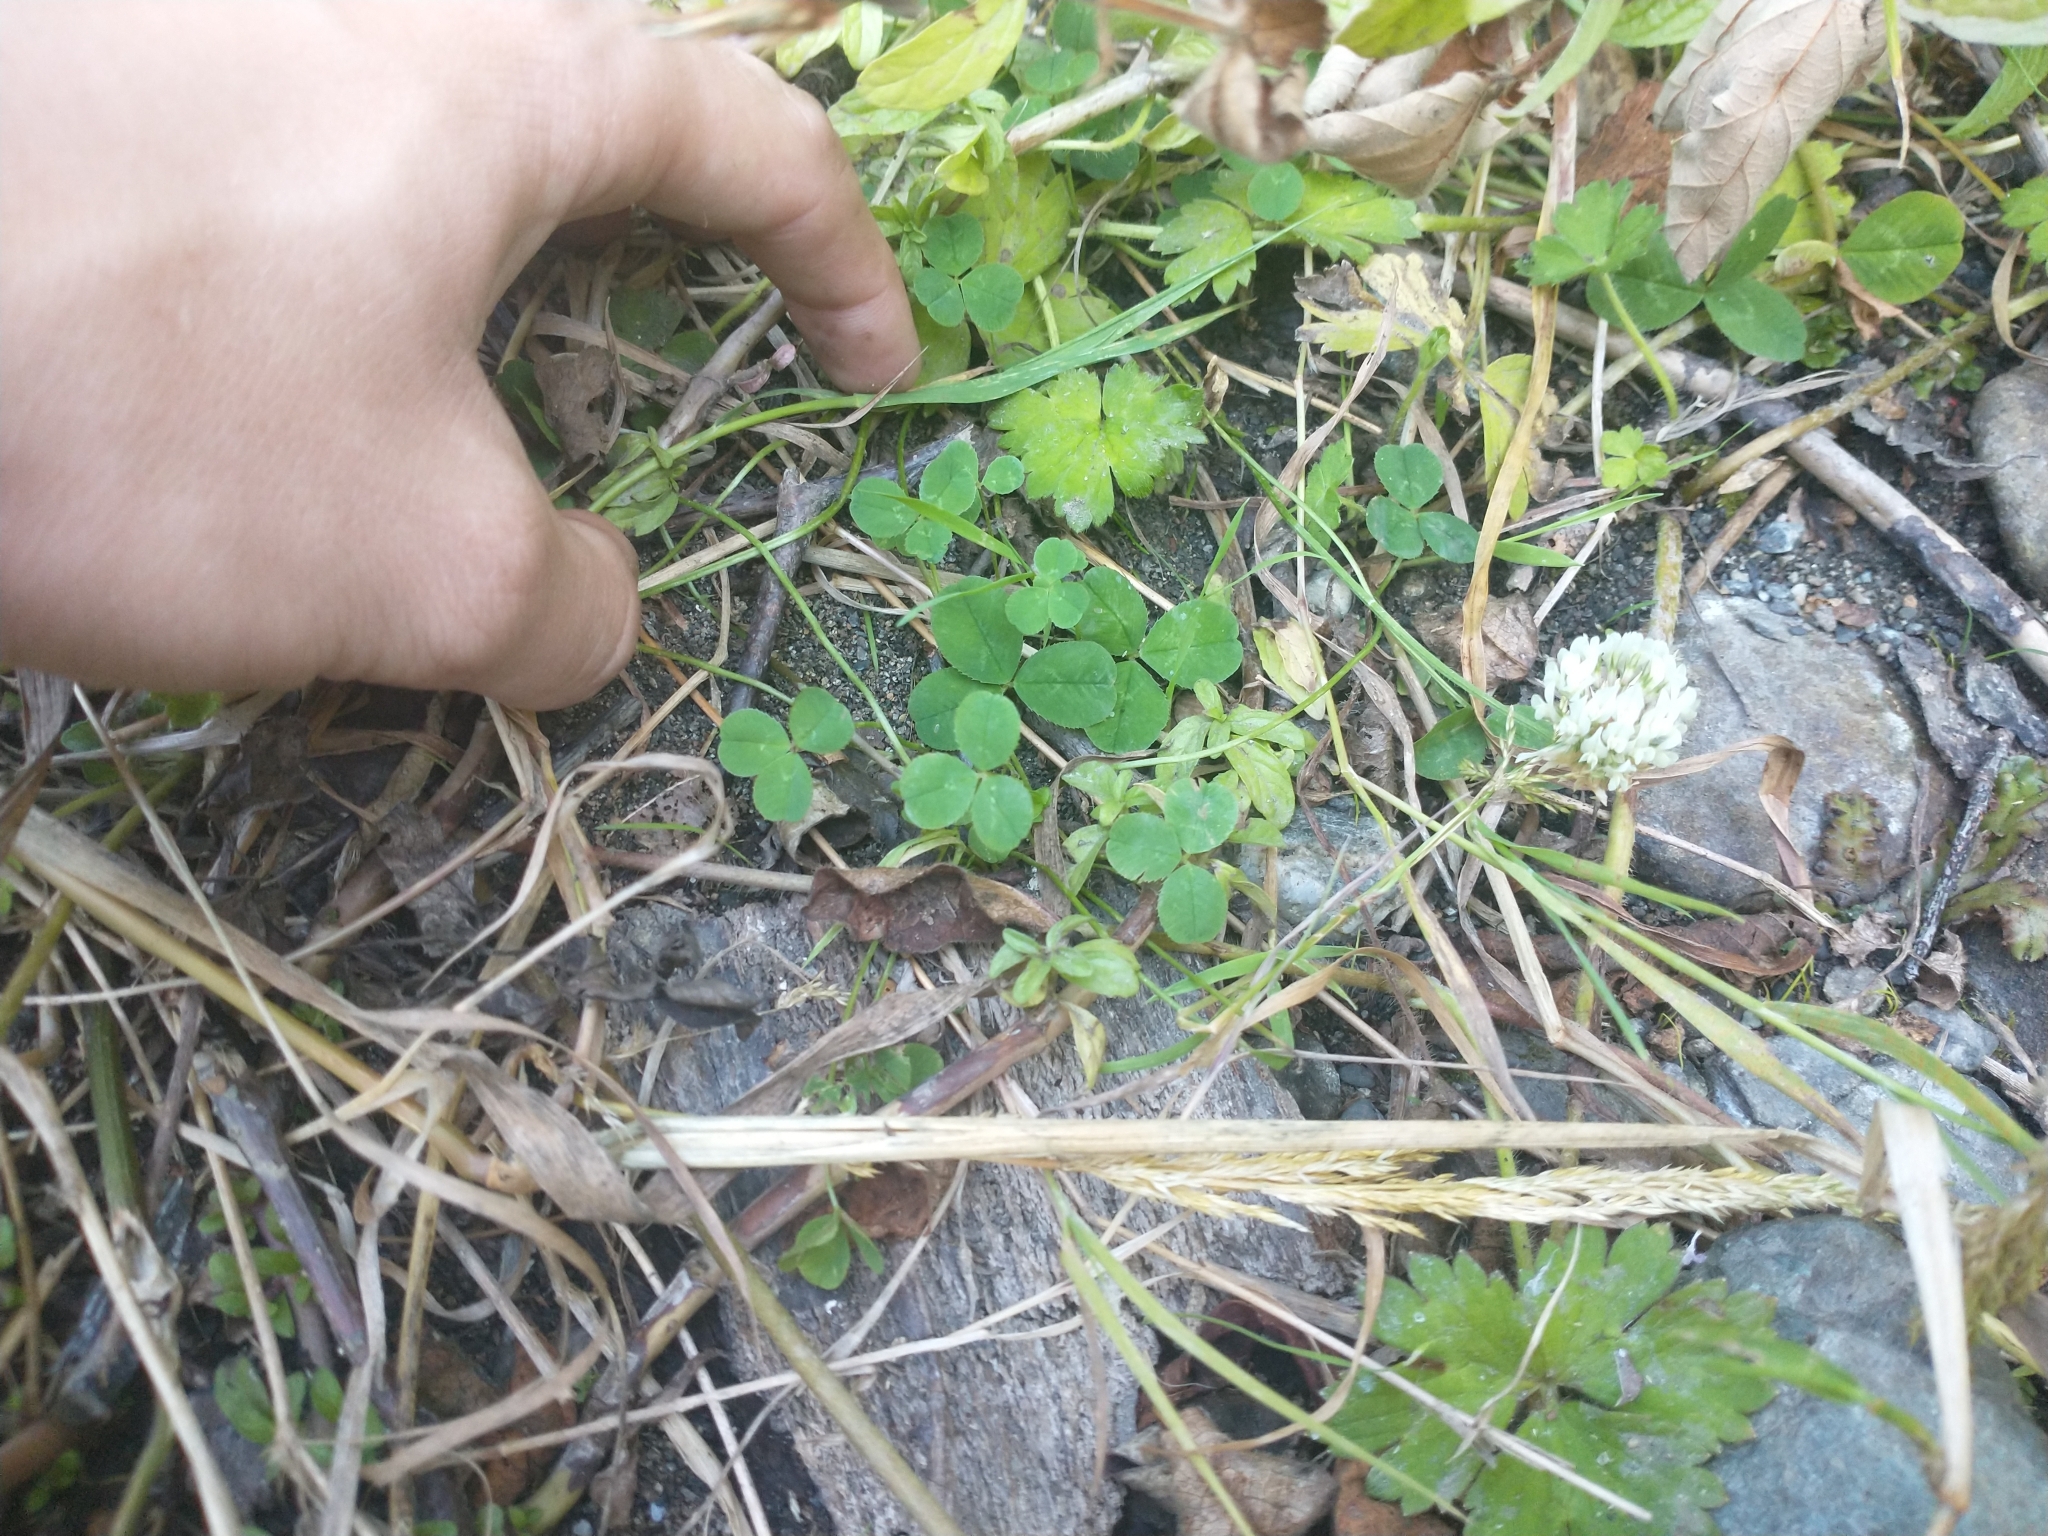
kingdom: Plantae
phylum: Tracheophyta
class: Magnoliopsida
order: Fabales
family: Fabaceae
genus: Trifolium
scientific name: Trifolium repens
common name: White clover
